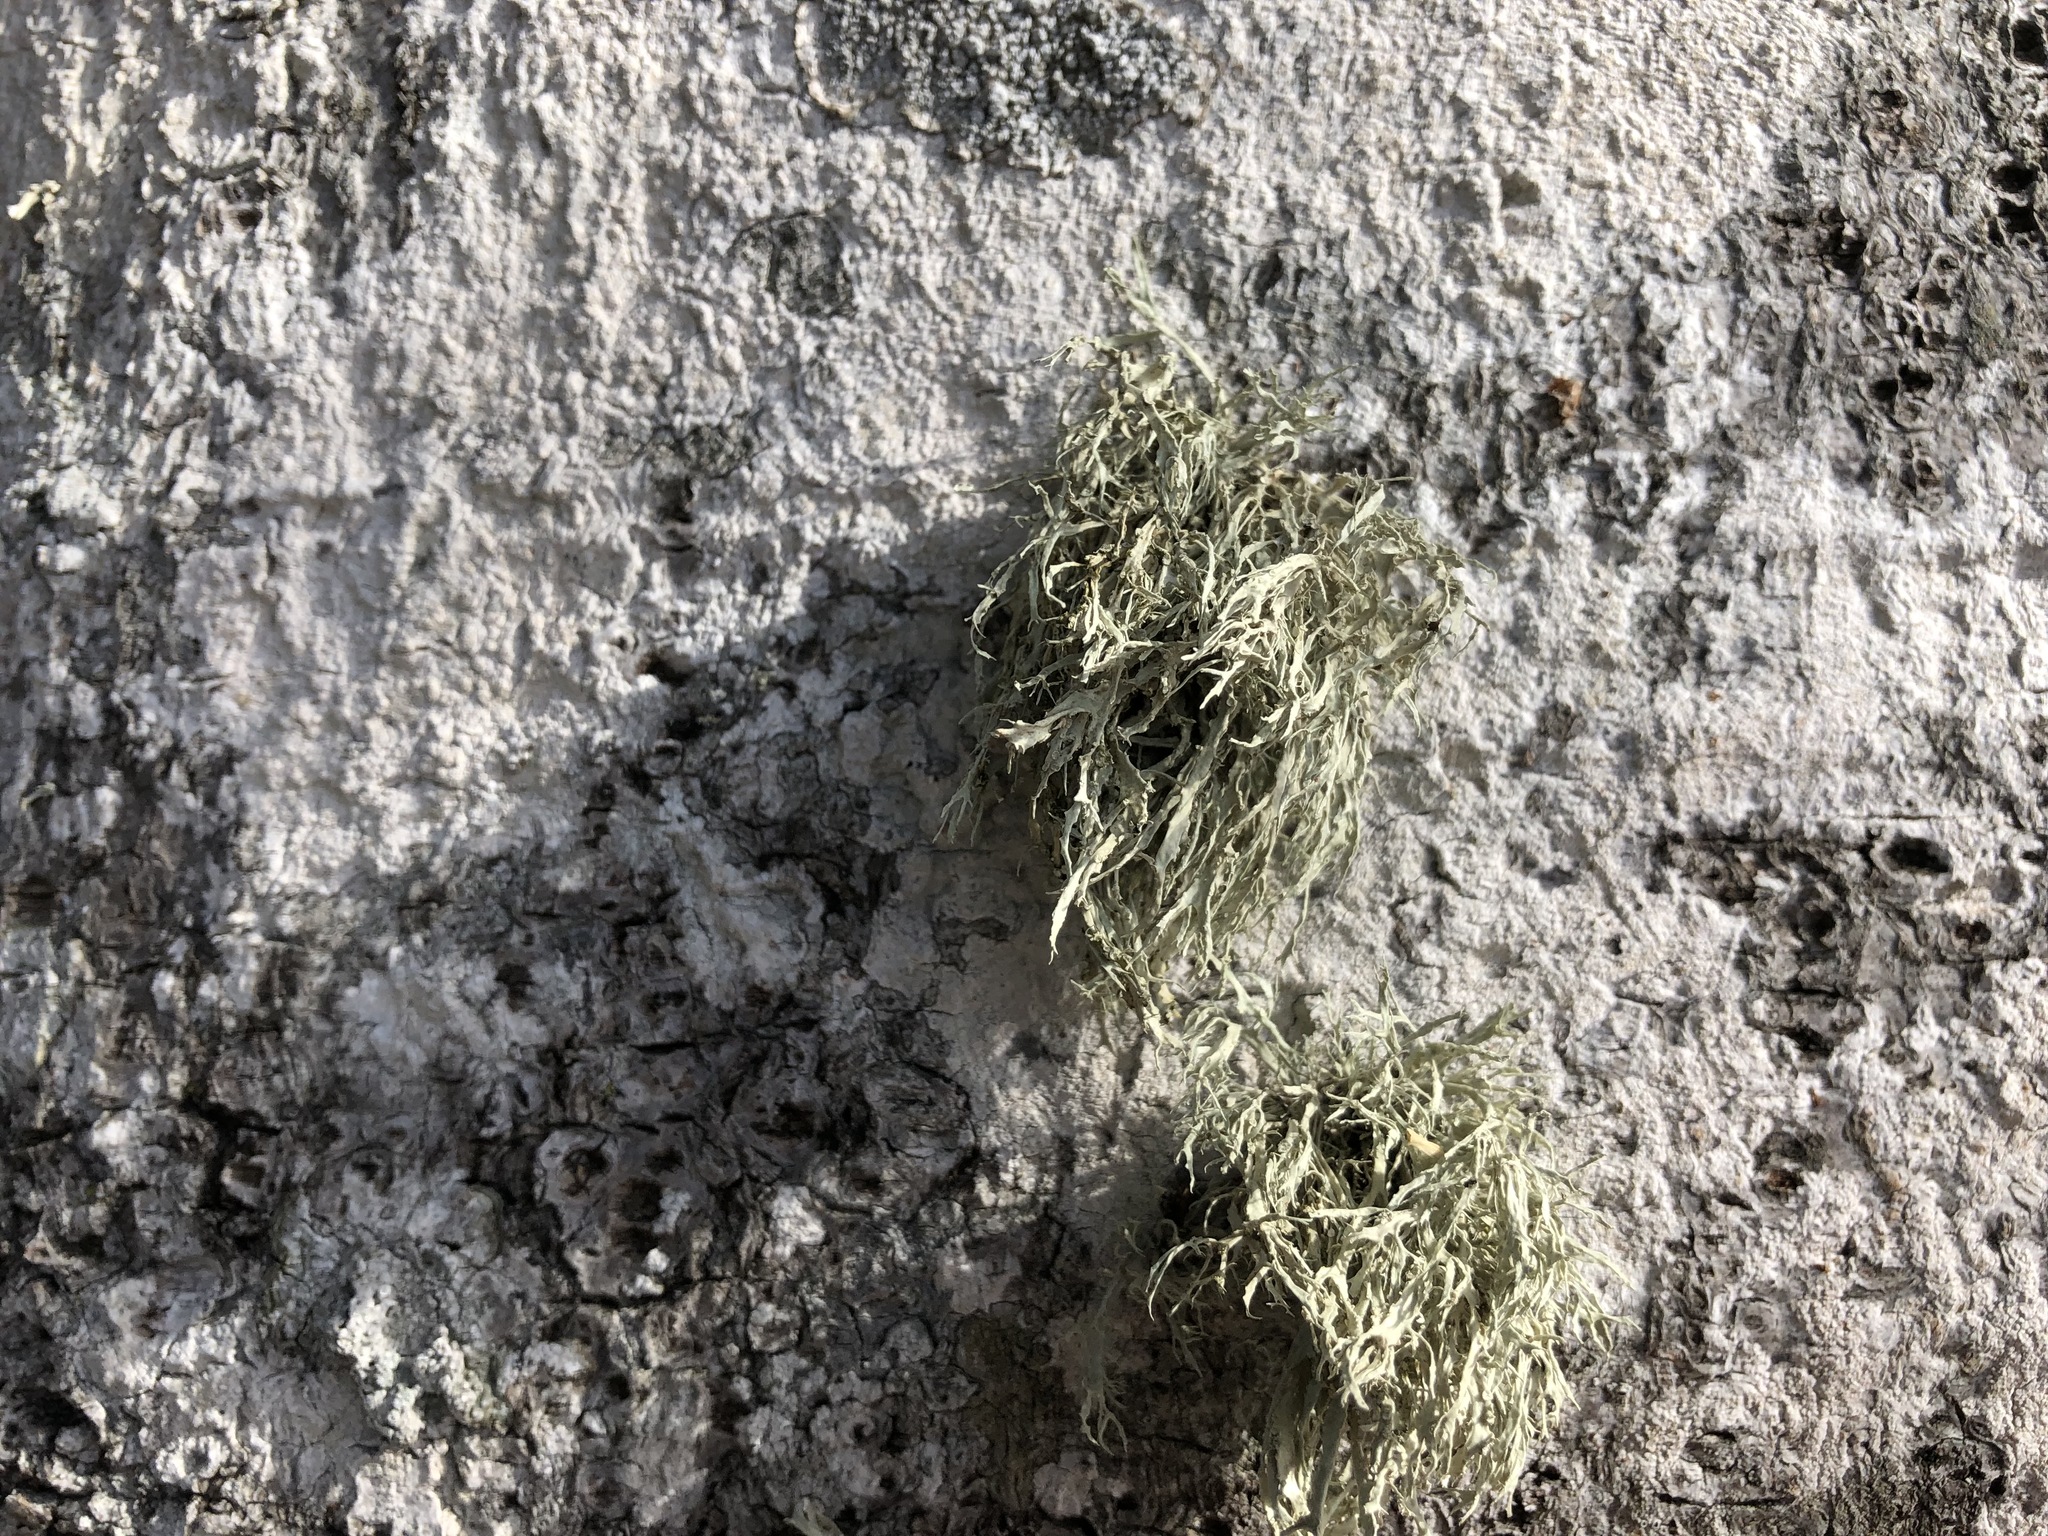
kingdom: Fungi
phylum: Ascomycota
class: Lecanoromycetes
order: Lecanorales
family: Ramalinaceae
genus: Ramalina
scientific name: Ramalina farinacea
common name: Farinose cartilage lichen
